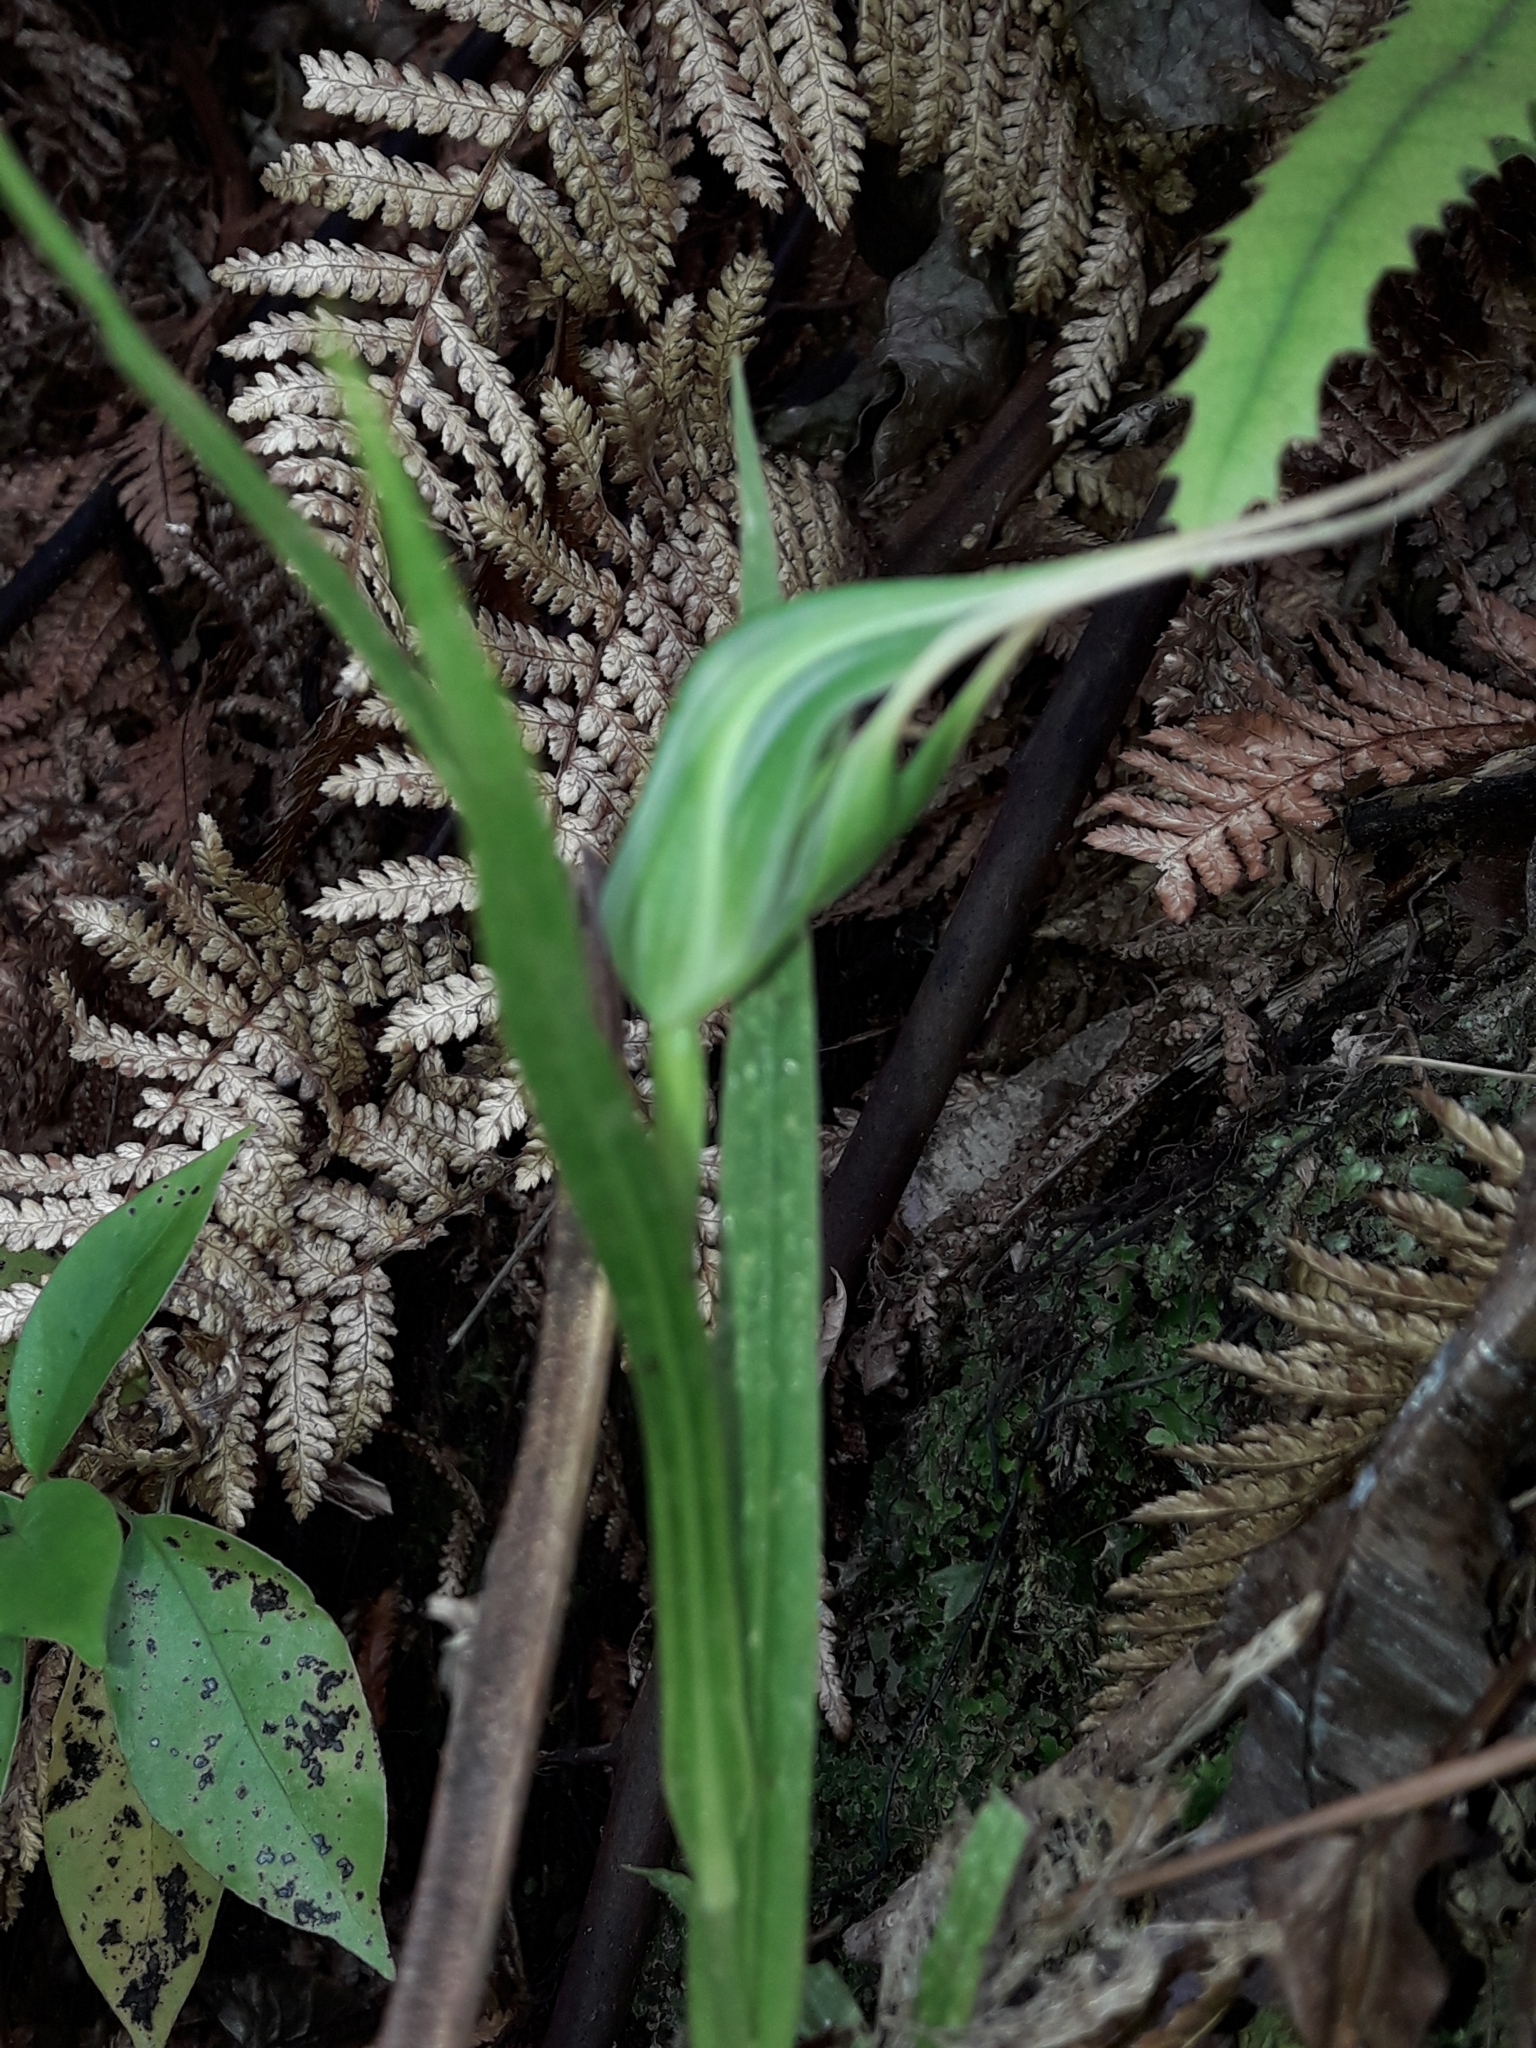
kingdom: Plantae
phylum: Tracheophyta
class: Liliopsida
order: Asparagales
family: Orchidaceae
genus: Pterostylis
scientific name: Pterostylis banksii
